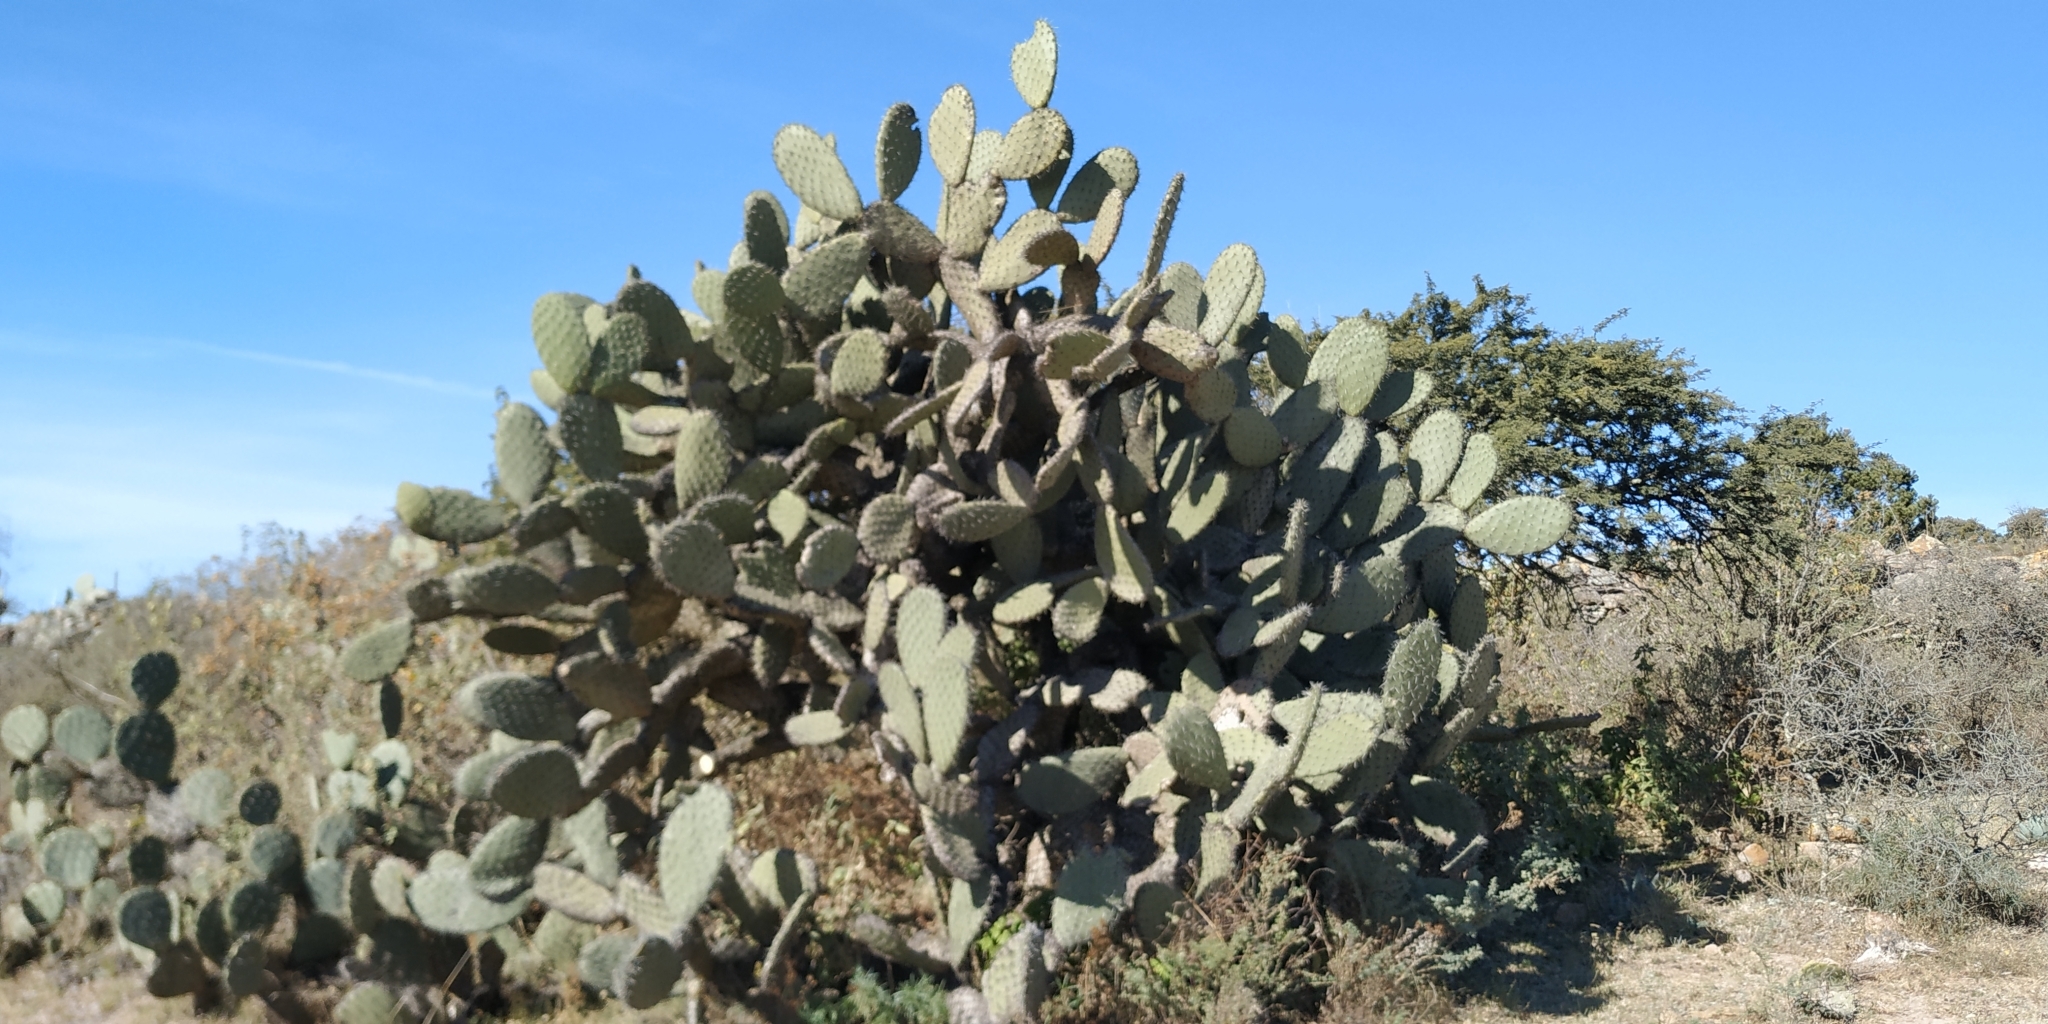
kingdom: Plantae
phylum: Tracheophyta
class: Magnoliopsida
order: Caryophyllales
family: Cactaceae
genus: Opuntia
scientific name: Opuntia hyptiacantha
